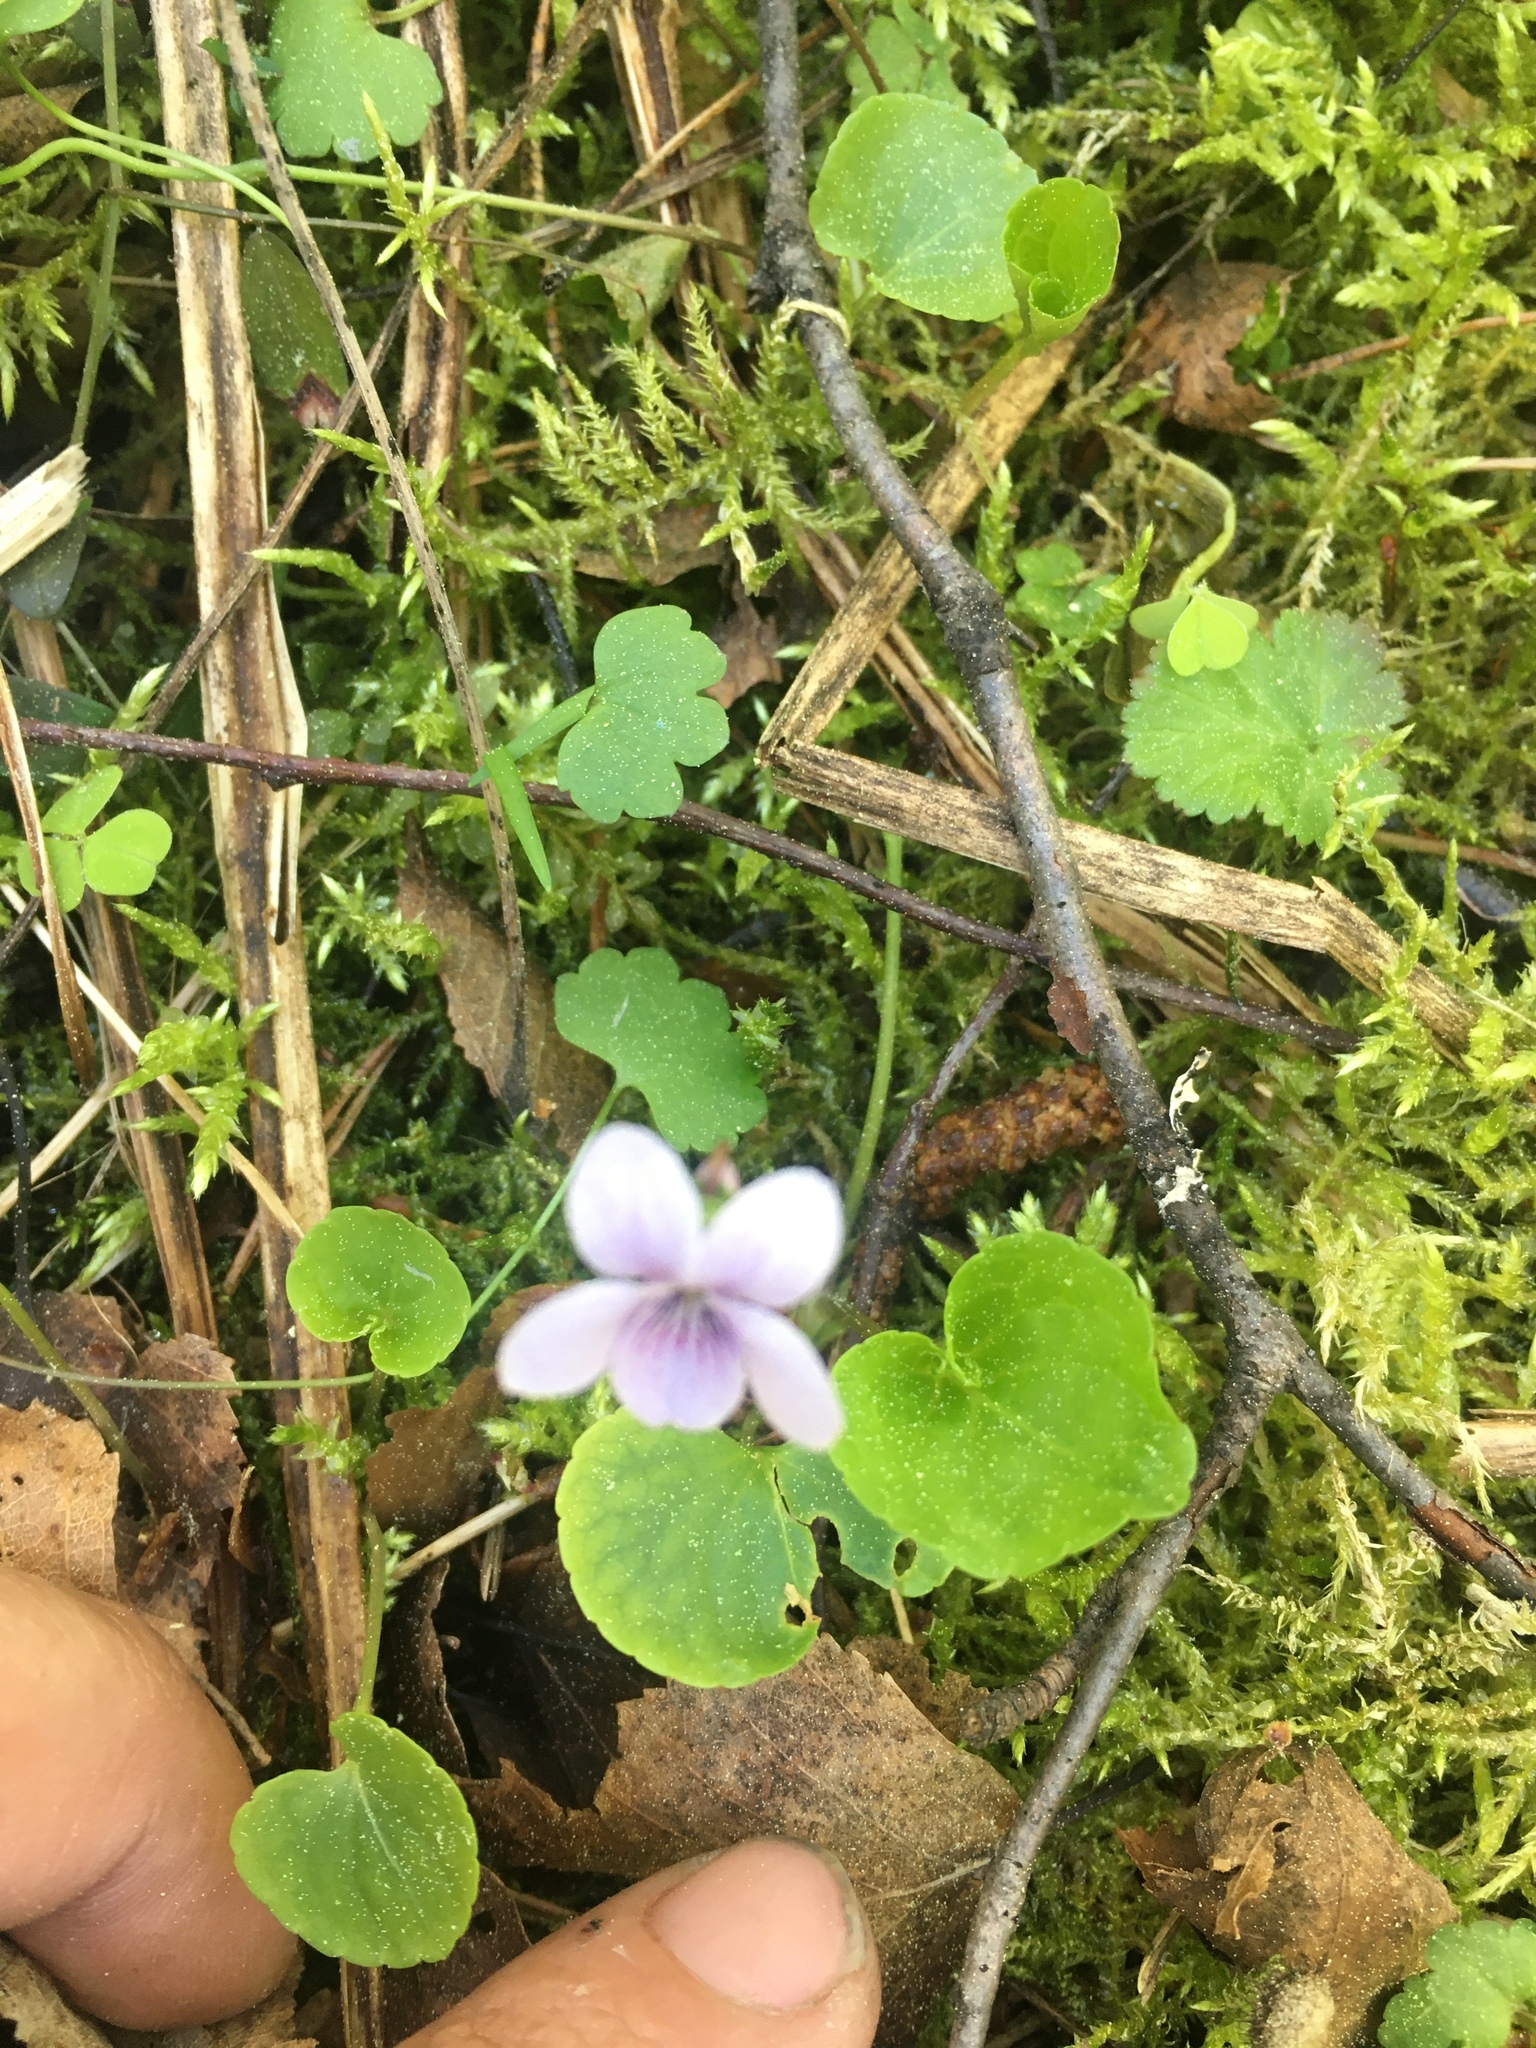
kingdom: Plantae
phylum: Tracheophyta
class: Magnoliopsida
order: Malpighiales
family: Violaceae
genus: Viola
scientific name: Viola palustris
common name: Marsh violet
